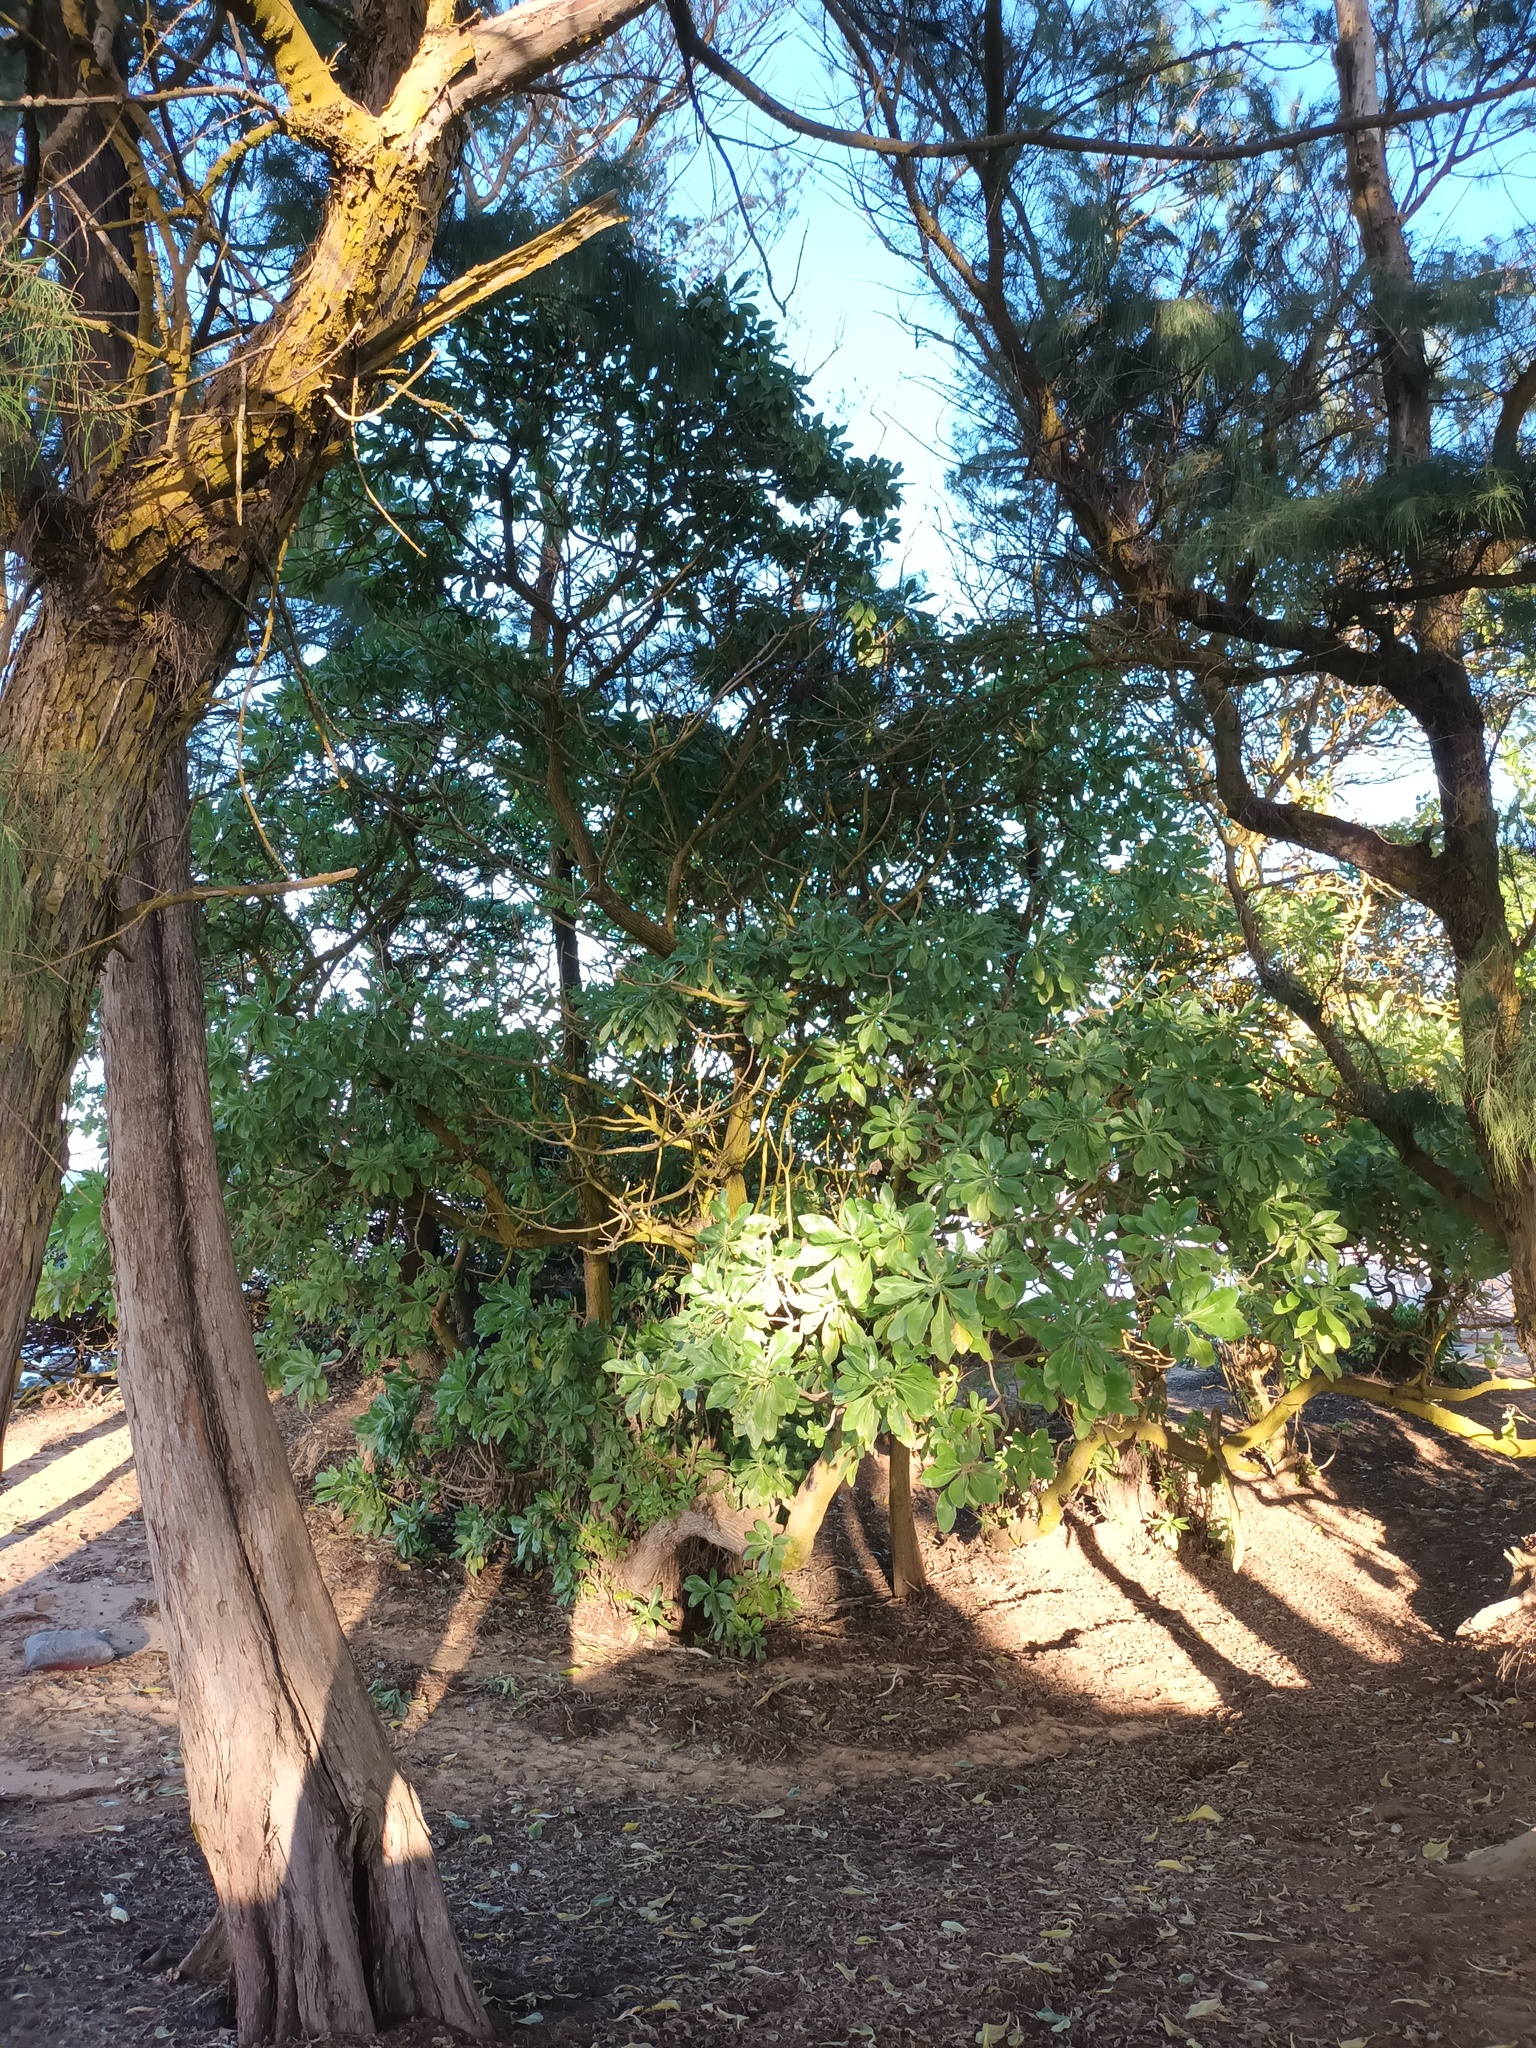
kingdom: Plantae
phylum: Tracheophyta
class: Magnoliopsida
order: Boraginales
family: Heliotropiaceae
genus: Heliotropium
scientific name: Heliotropium velutinum
